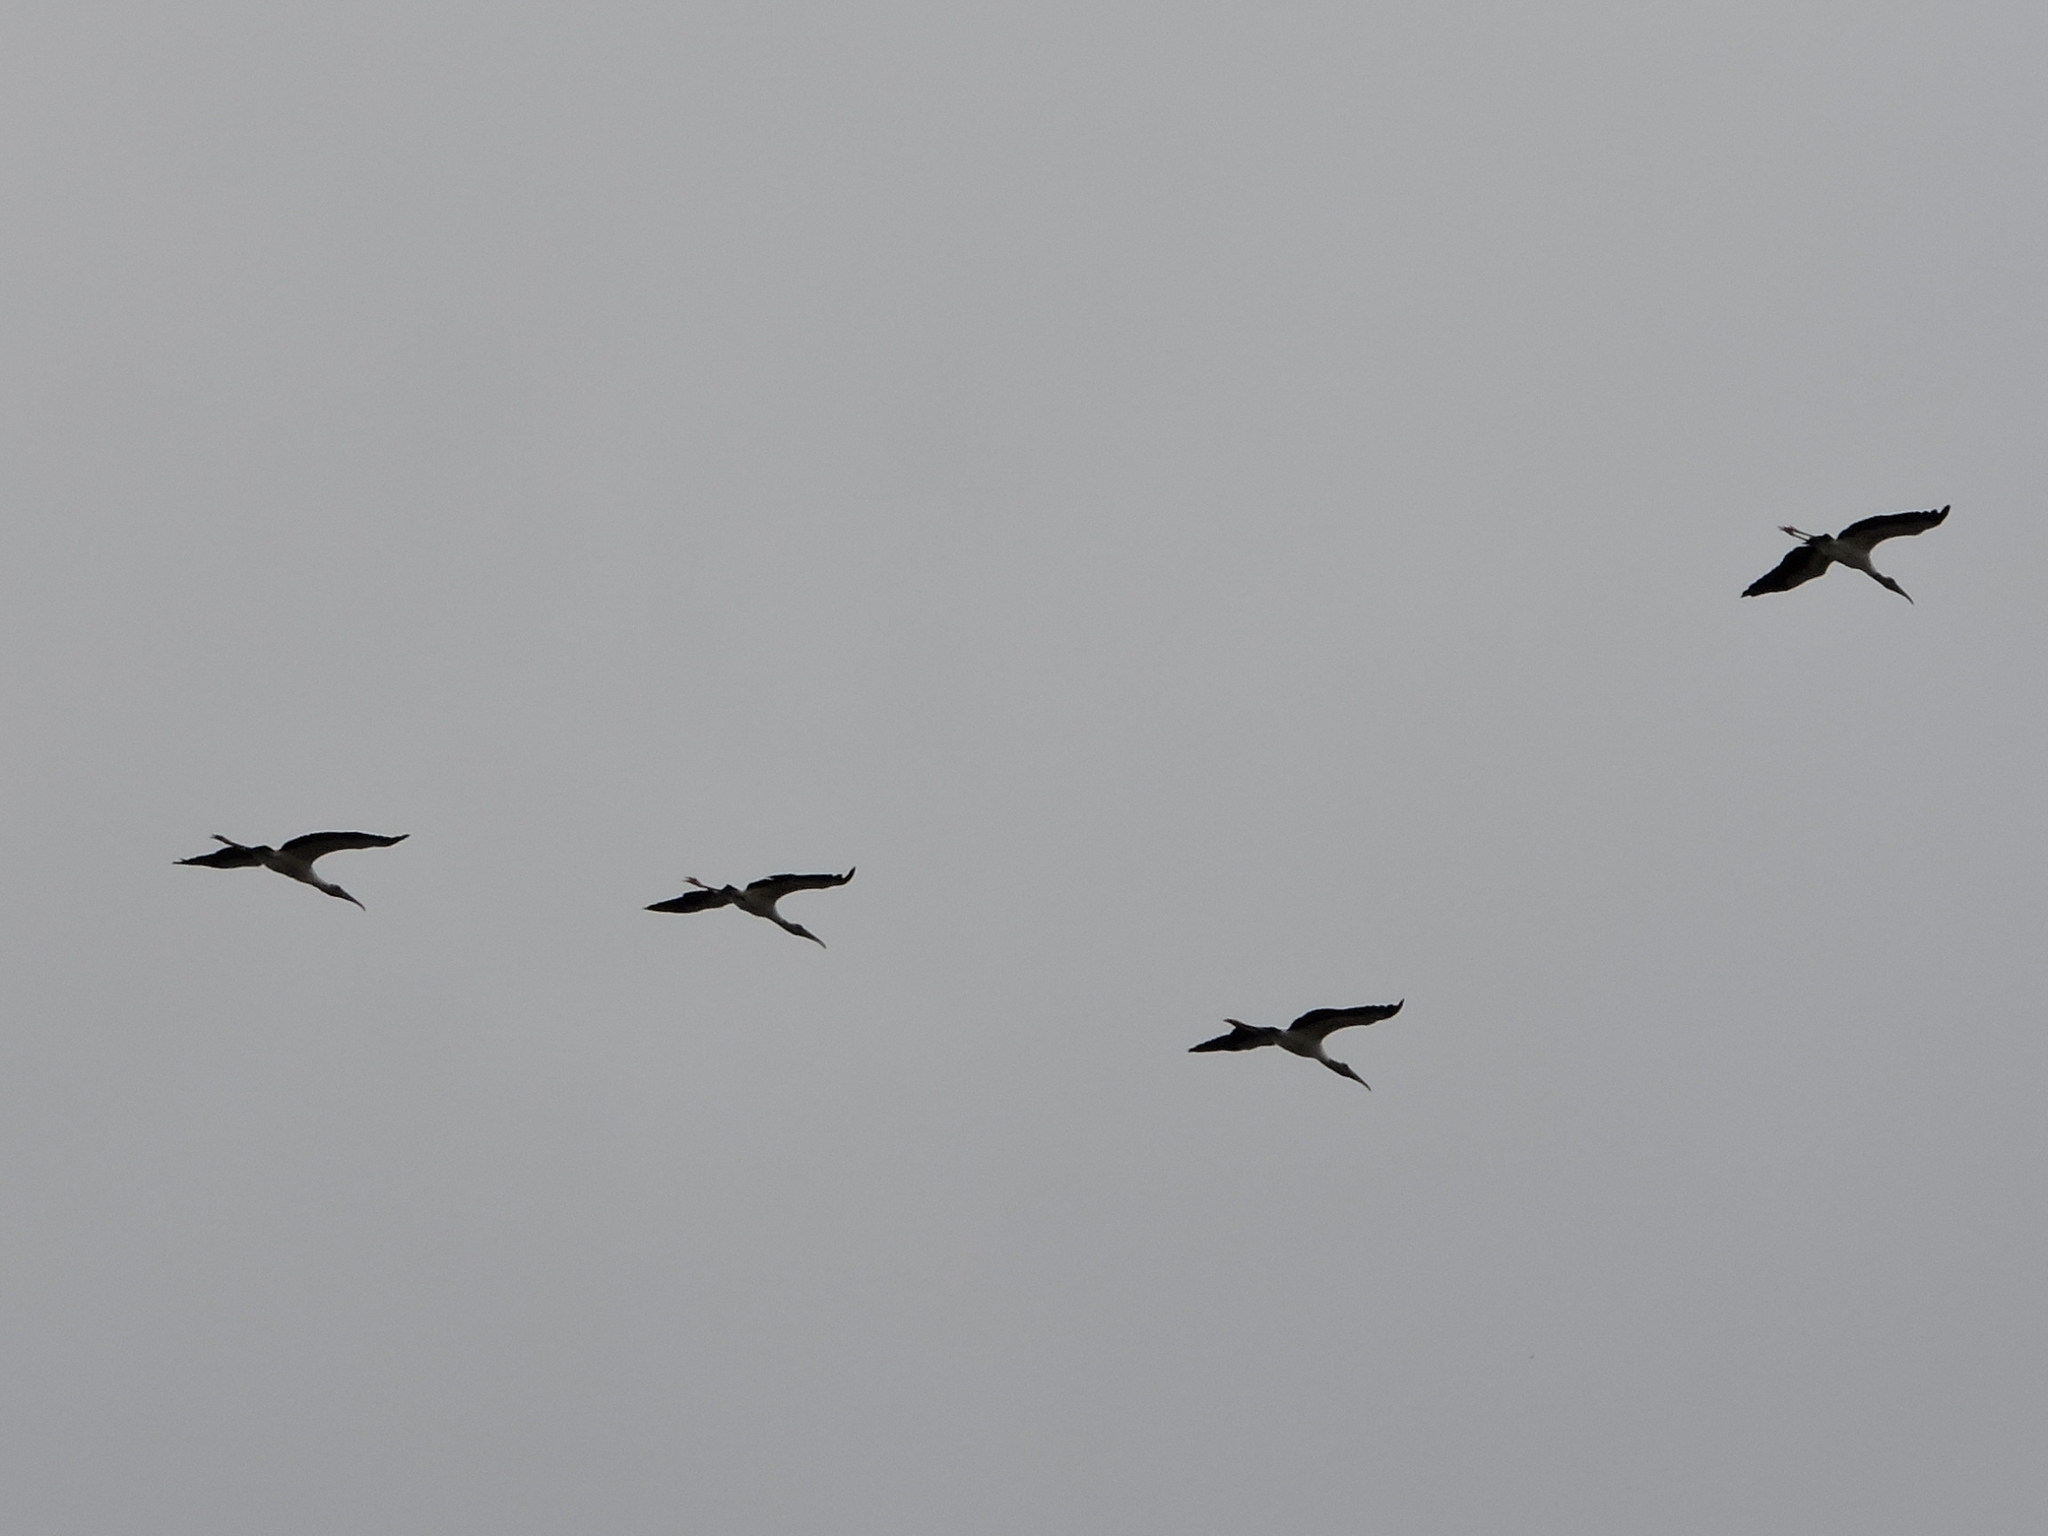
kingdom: Animalia
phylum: Chordata
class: Aves
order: Ciconiiformes
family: Ciconiidae
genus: Mycteria
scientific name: Mycteria americana
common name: Wood stork
